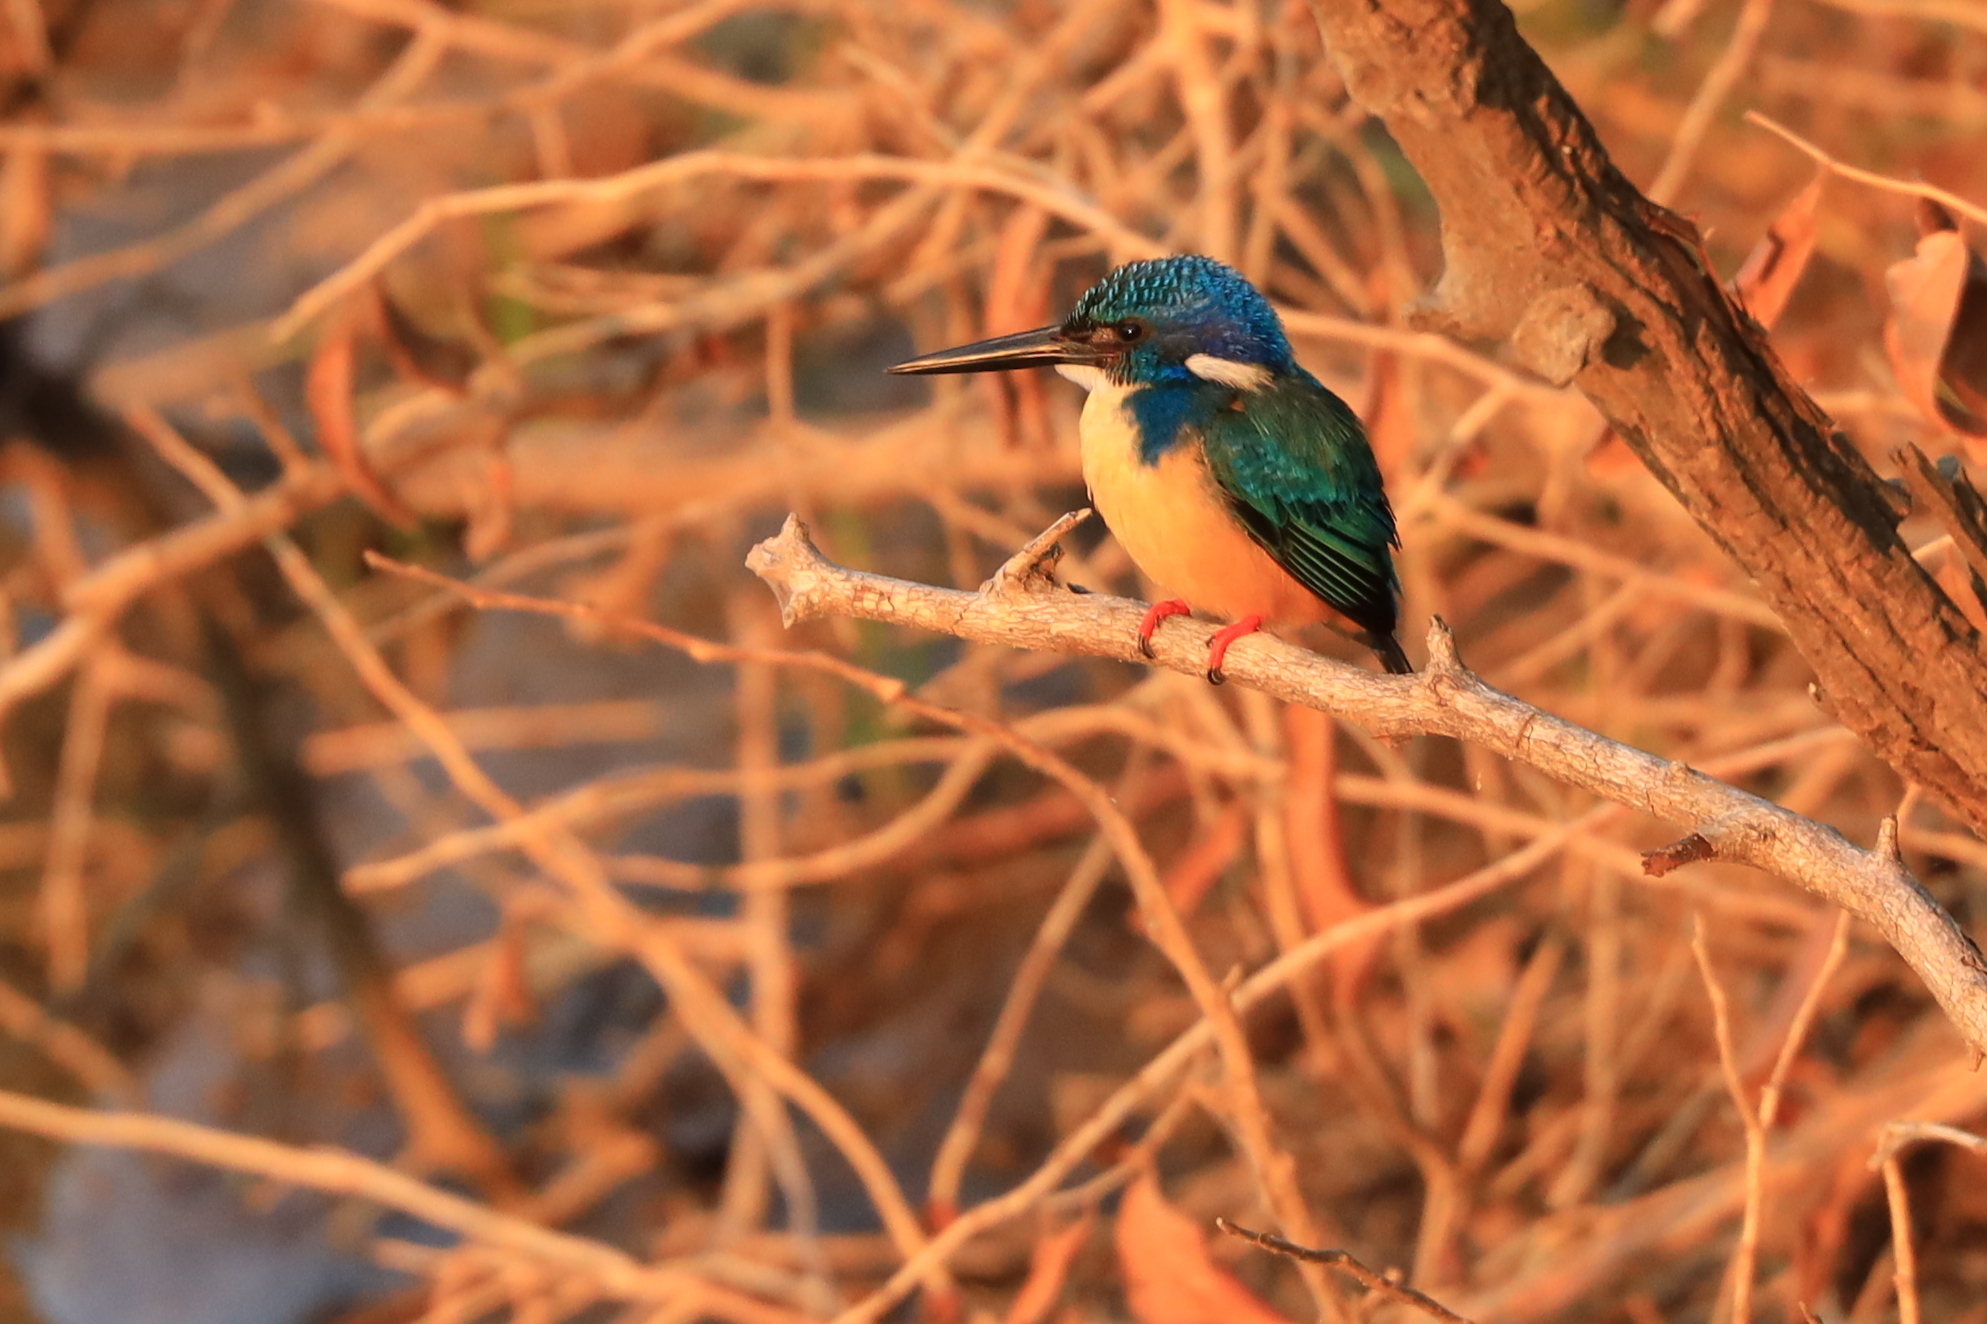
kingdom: Animalia
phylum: Chordata
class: Aves
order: Coraciiformes
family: Alcedinidae
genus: Alcedo
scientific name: Alcedo semitorquata
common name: Half-collared kingfisher
